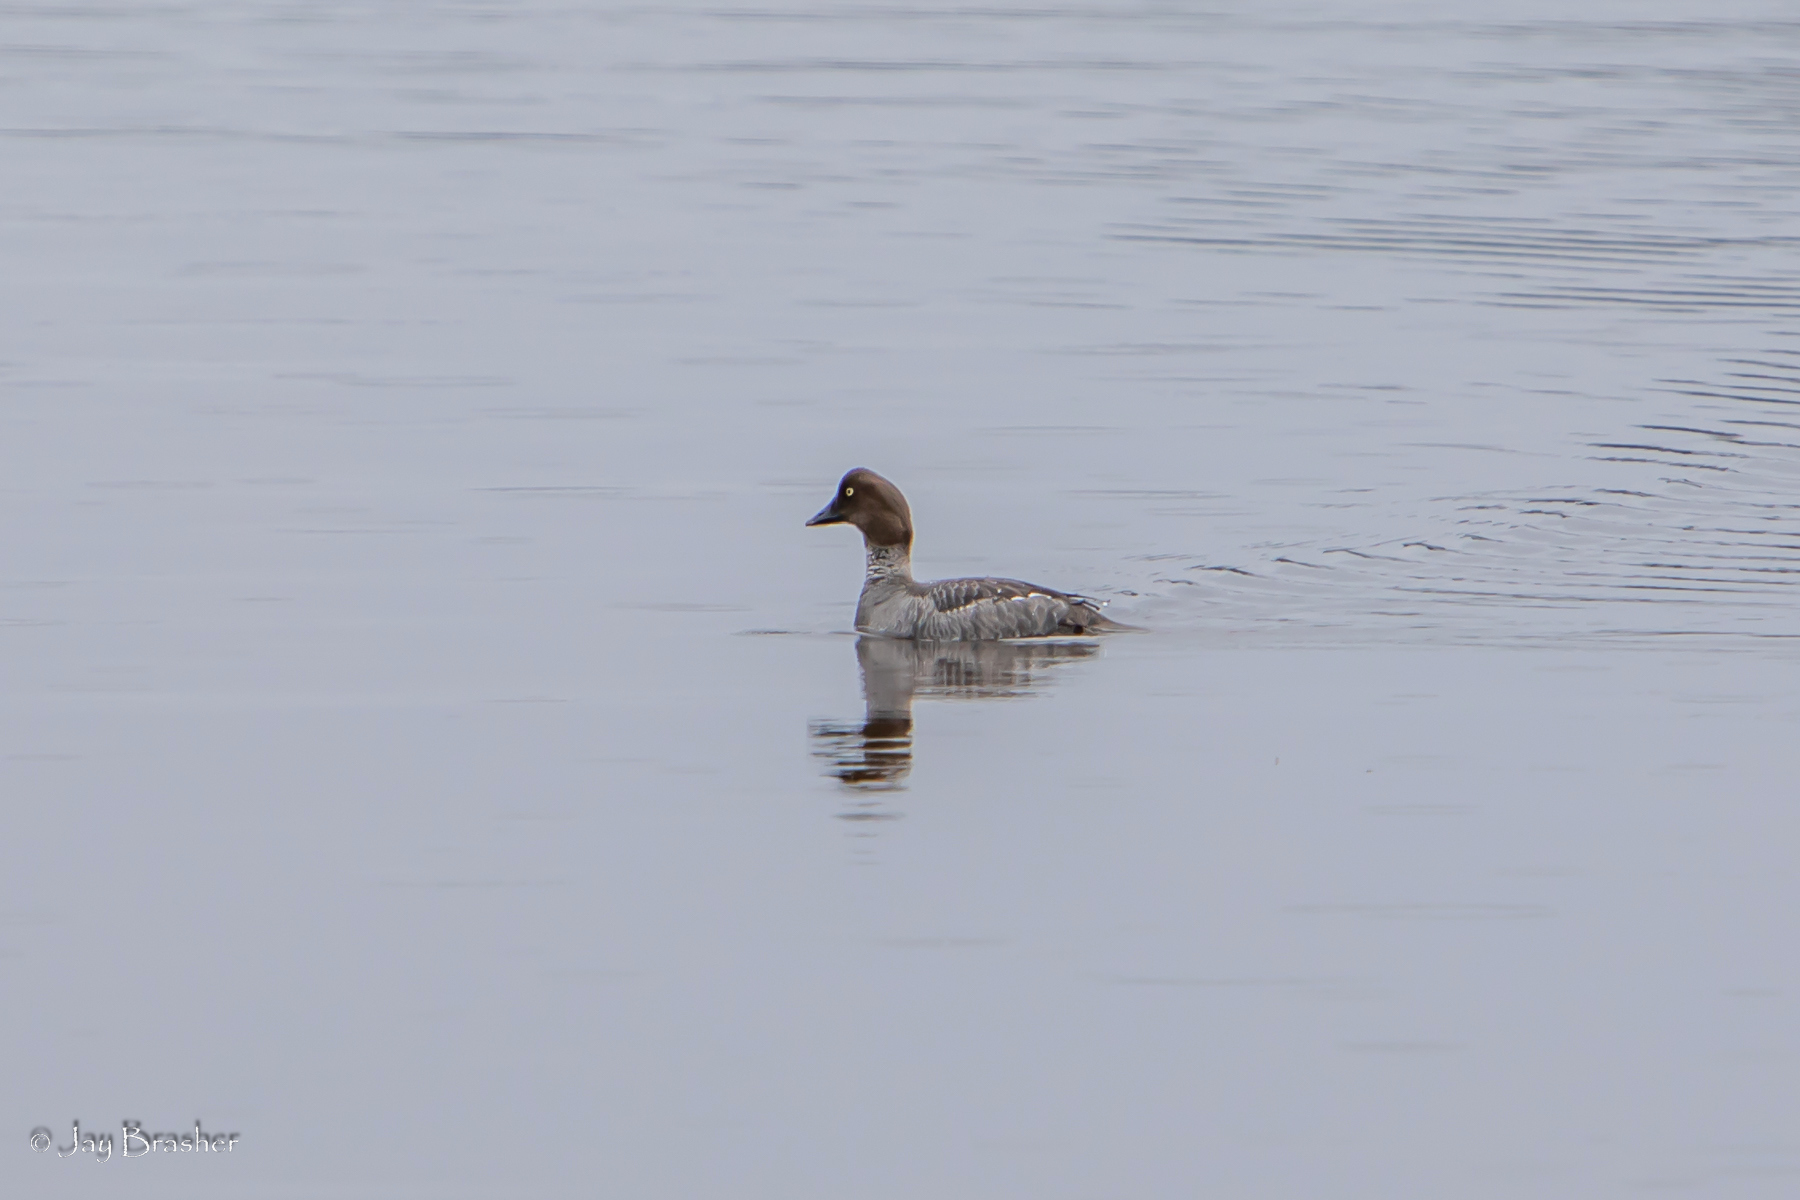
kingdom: Animalia
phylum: Chordata
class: Aves
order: Anseriformes
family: Anatidae
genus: Bucephala
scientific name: Bucephala clangula
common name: Common goldeneye
